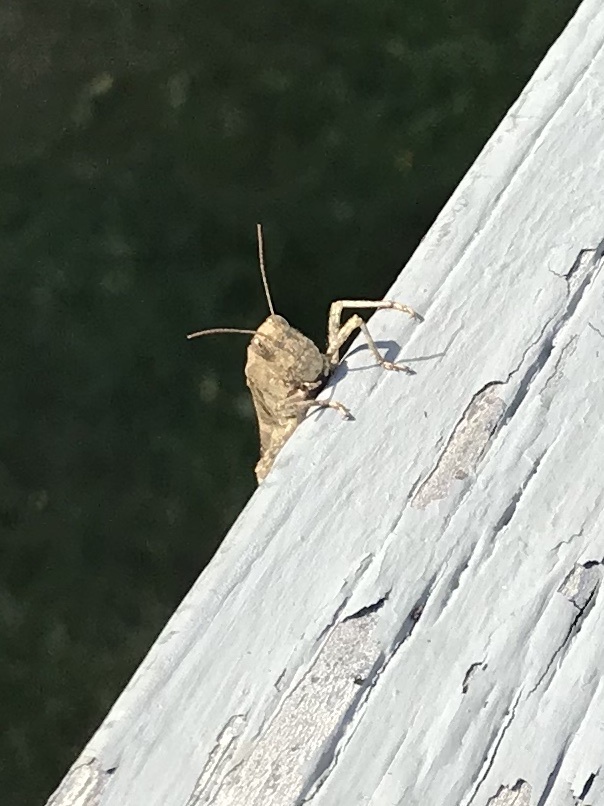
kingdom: Animalia
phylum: Arthropoda
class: Insecta
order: Orthoptera
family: Acrididae
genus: Dissosteira
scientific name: Dissosteira carolina
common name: Carolina grasshopper
